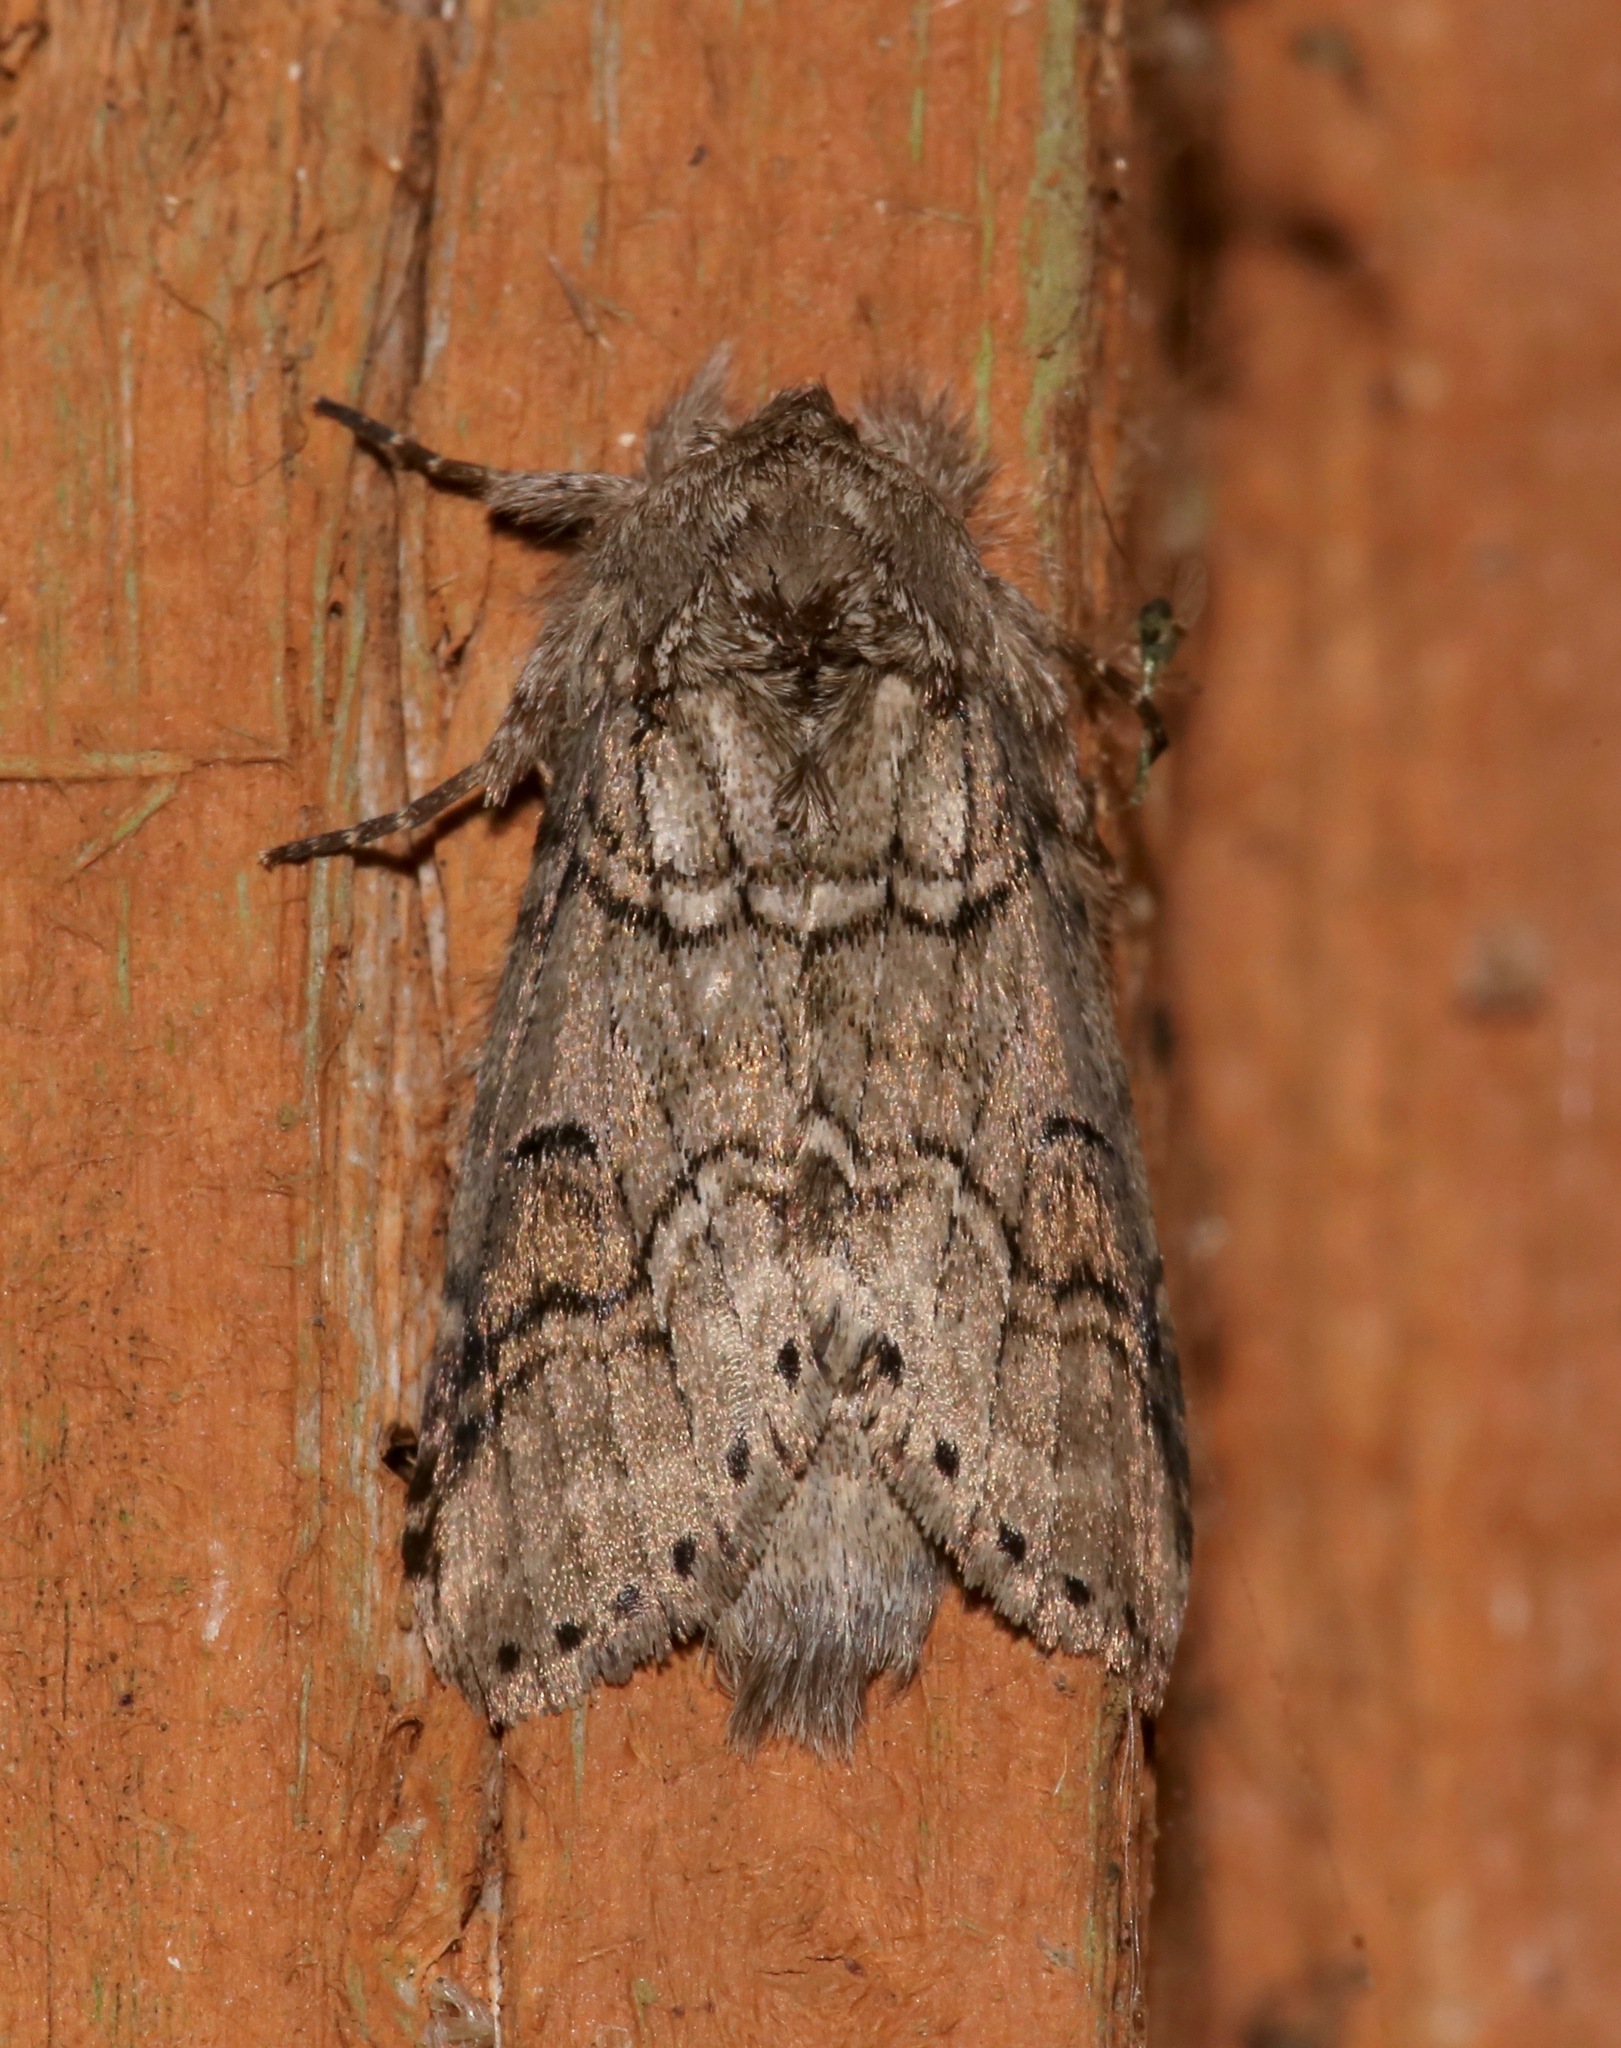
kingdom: Animalia
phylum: Arthropoda
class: Insecta
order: Lepidoptera
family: Notodontidae
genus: Lochmaeus
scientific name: Lochmaeus bilineata
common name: Double-lined prominent
